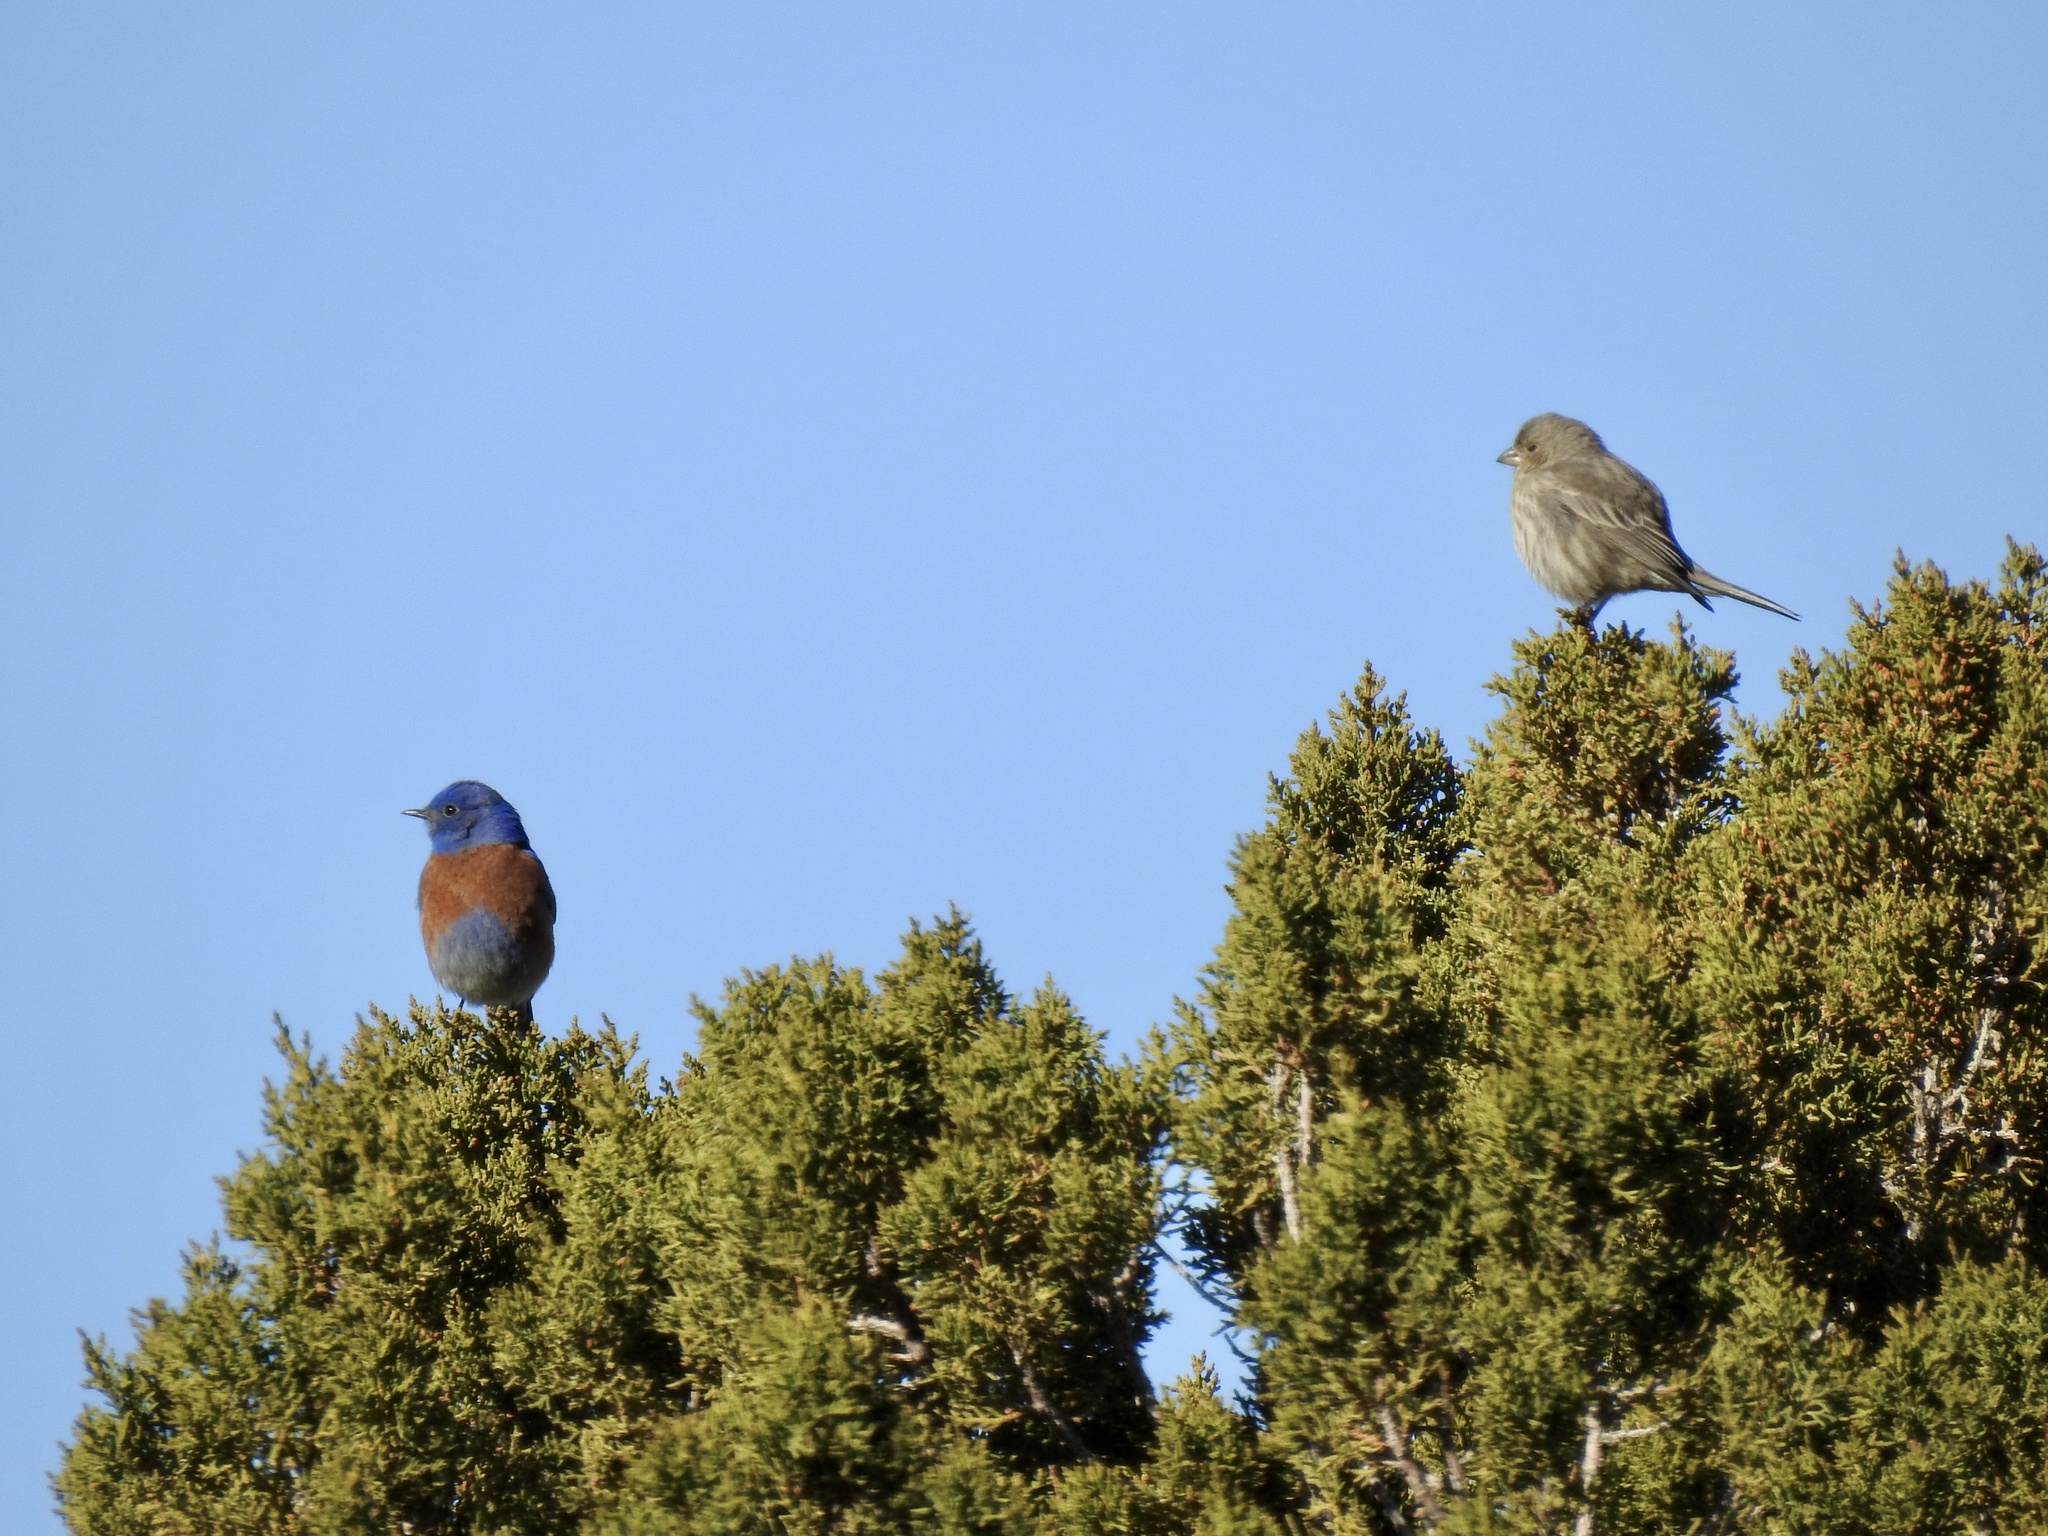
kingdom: Animalia
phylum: Chordata
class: Aves
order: Passeriformes
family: Fringillidae
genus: Haemorhous
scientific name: Haemorhous mexicanus
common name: House finch
